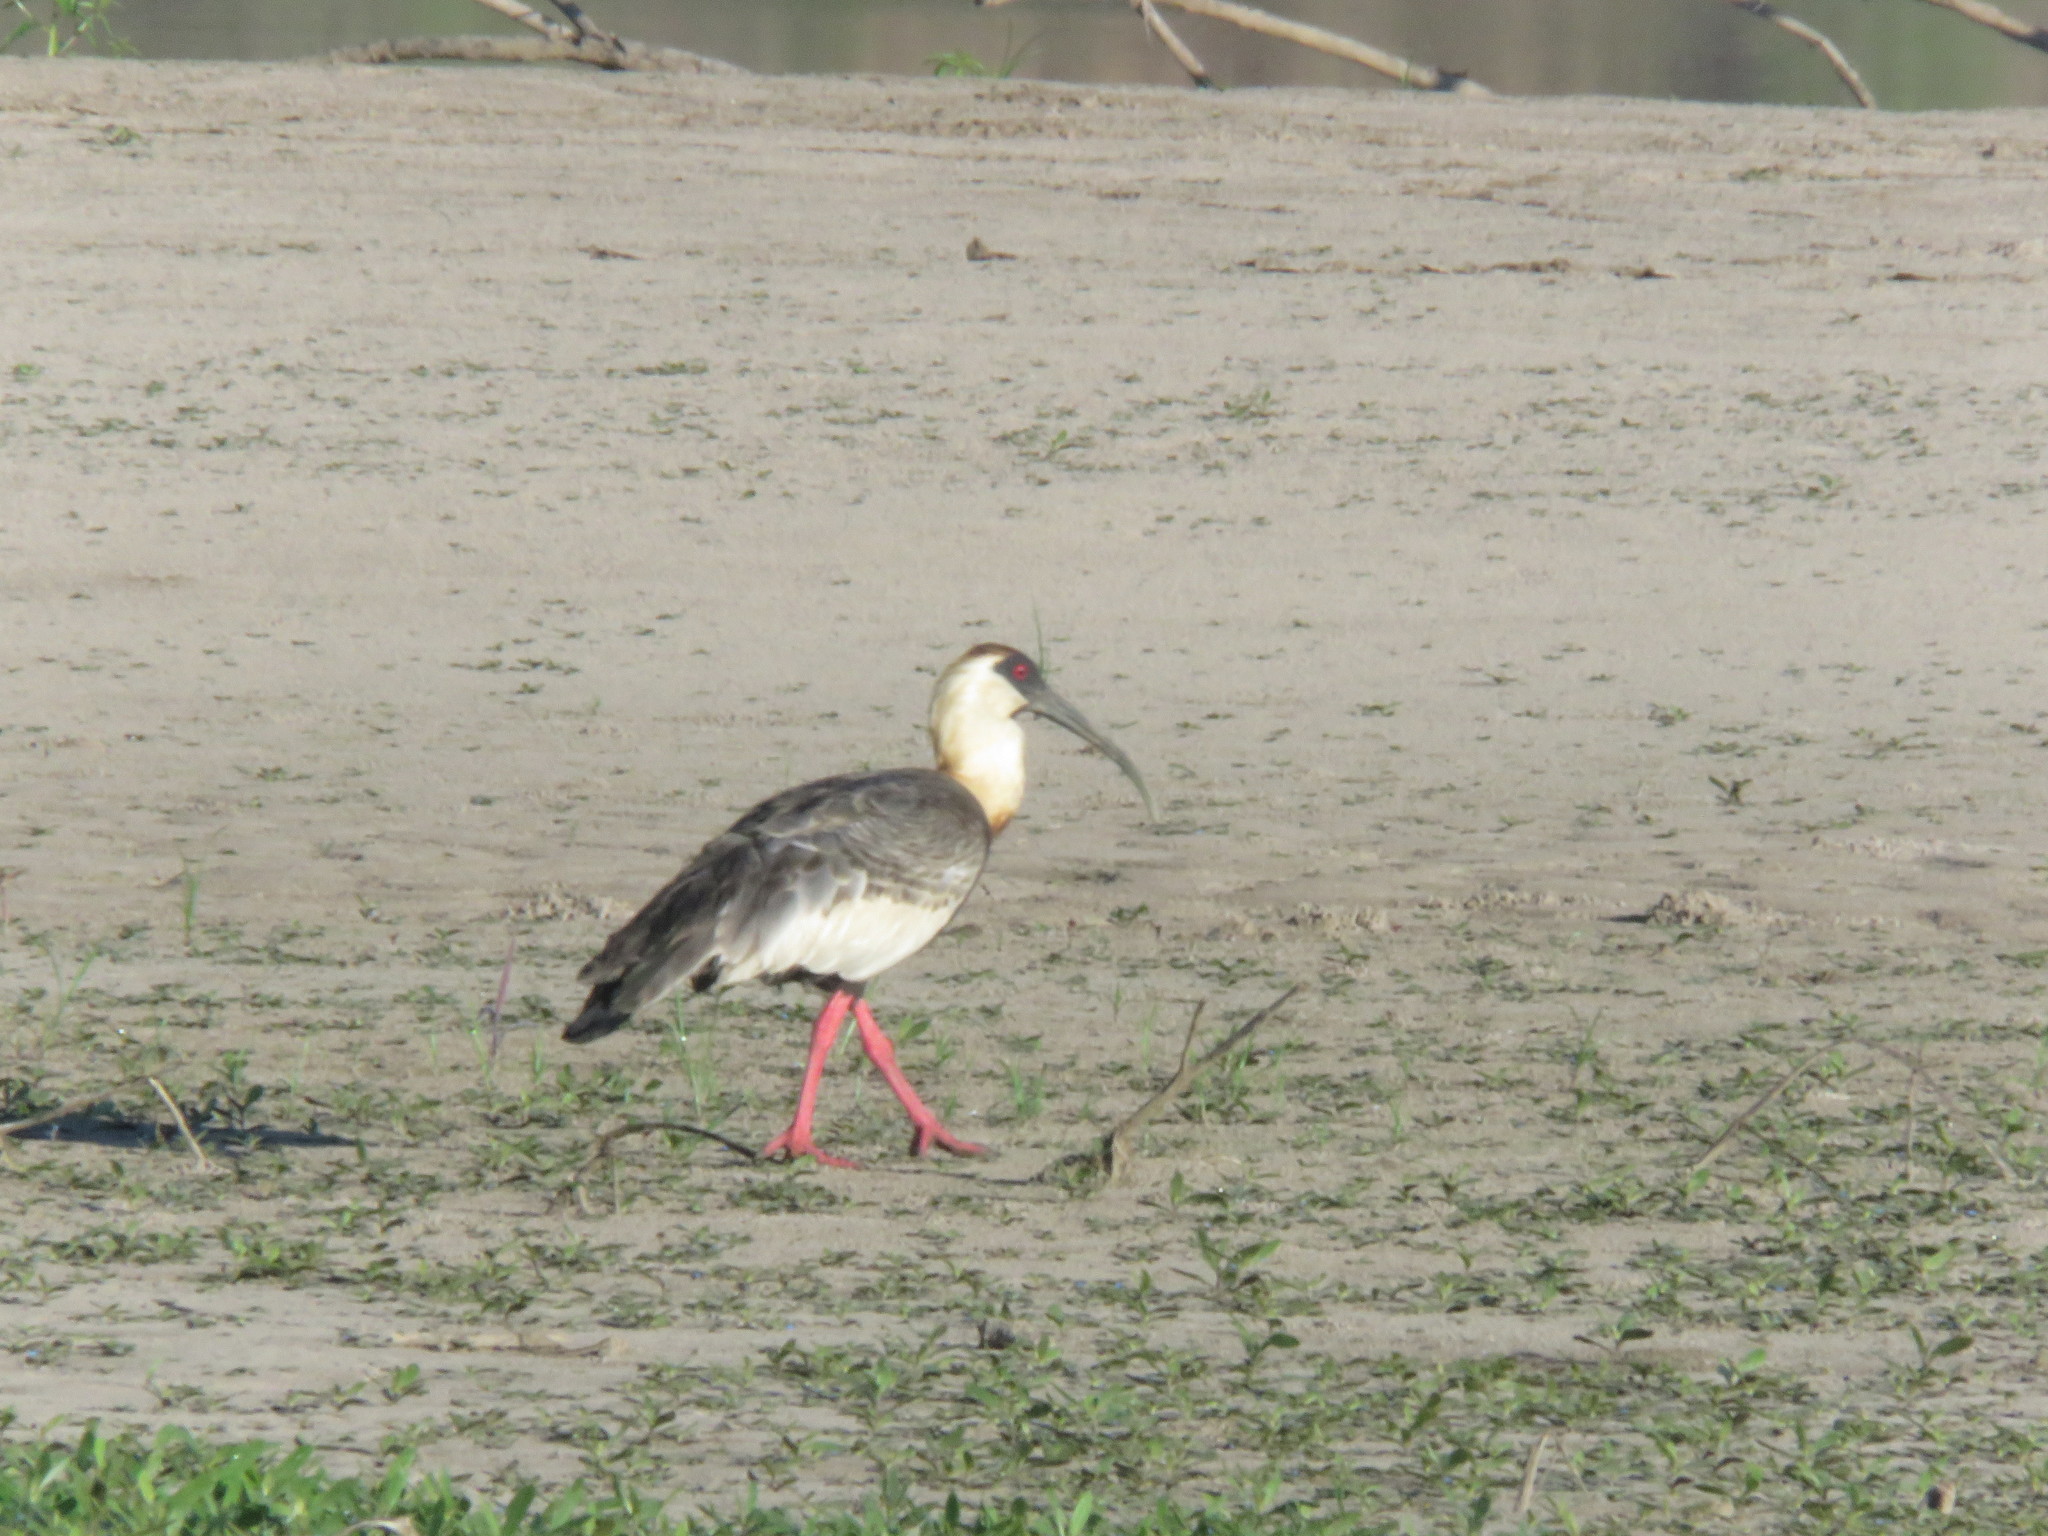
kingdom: Animalia
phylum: Chordata
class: Aves
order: Pelecaniformes
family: Threskiornithidae
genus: Theristicus
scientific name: Theristicus caudatus
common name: Buff-necked ibis
